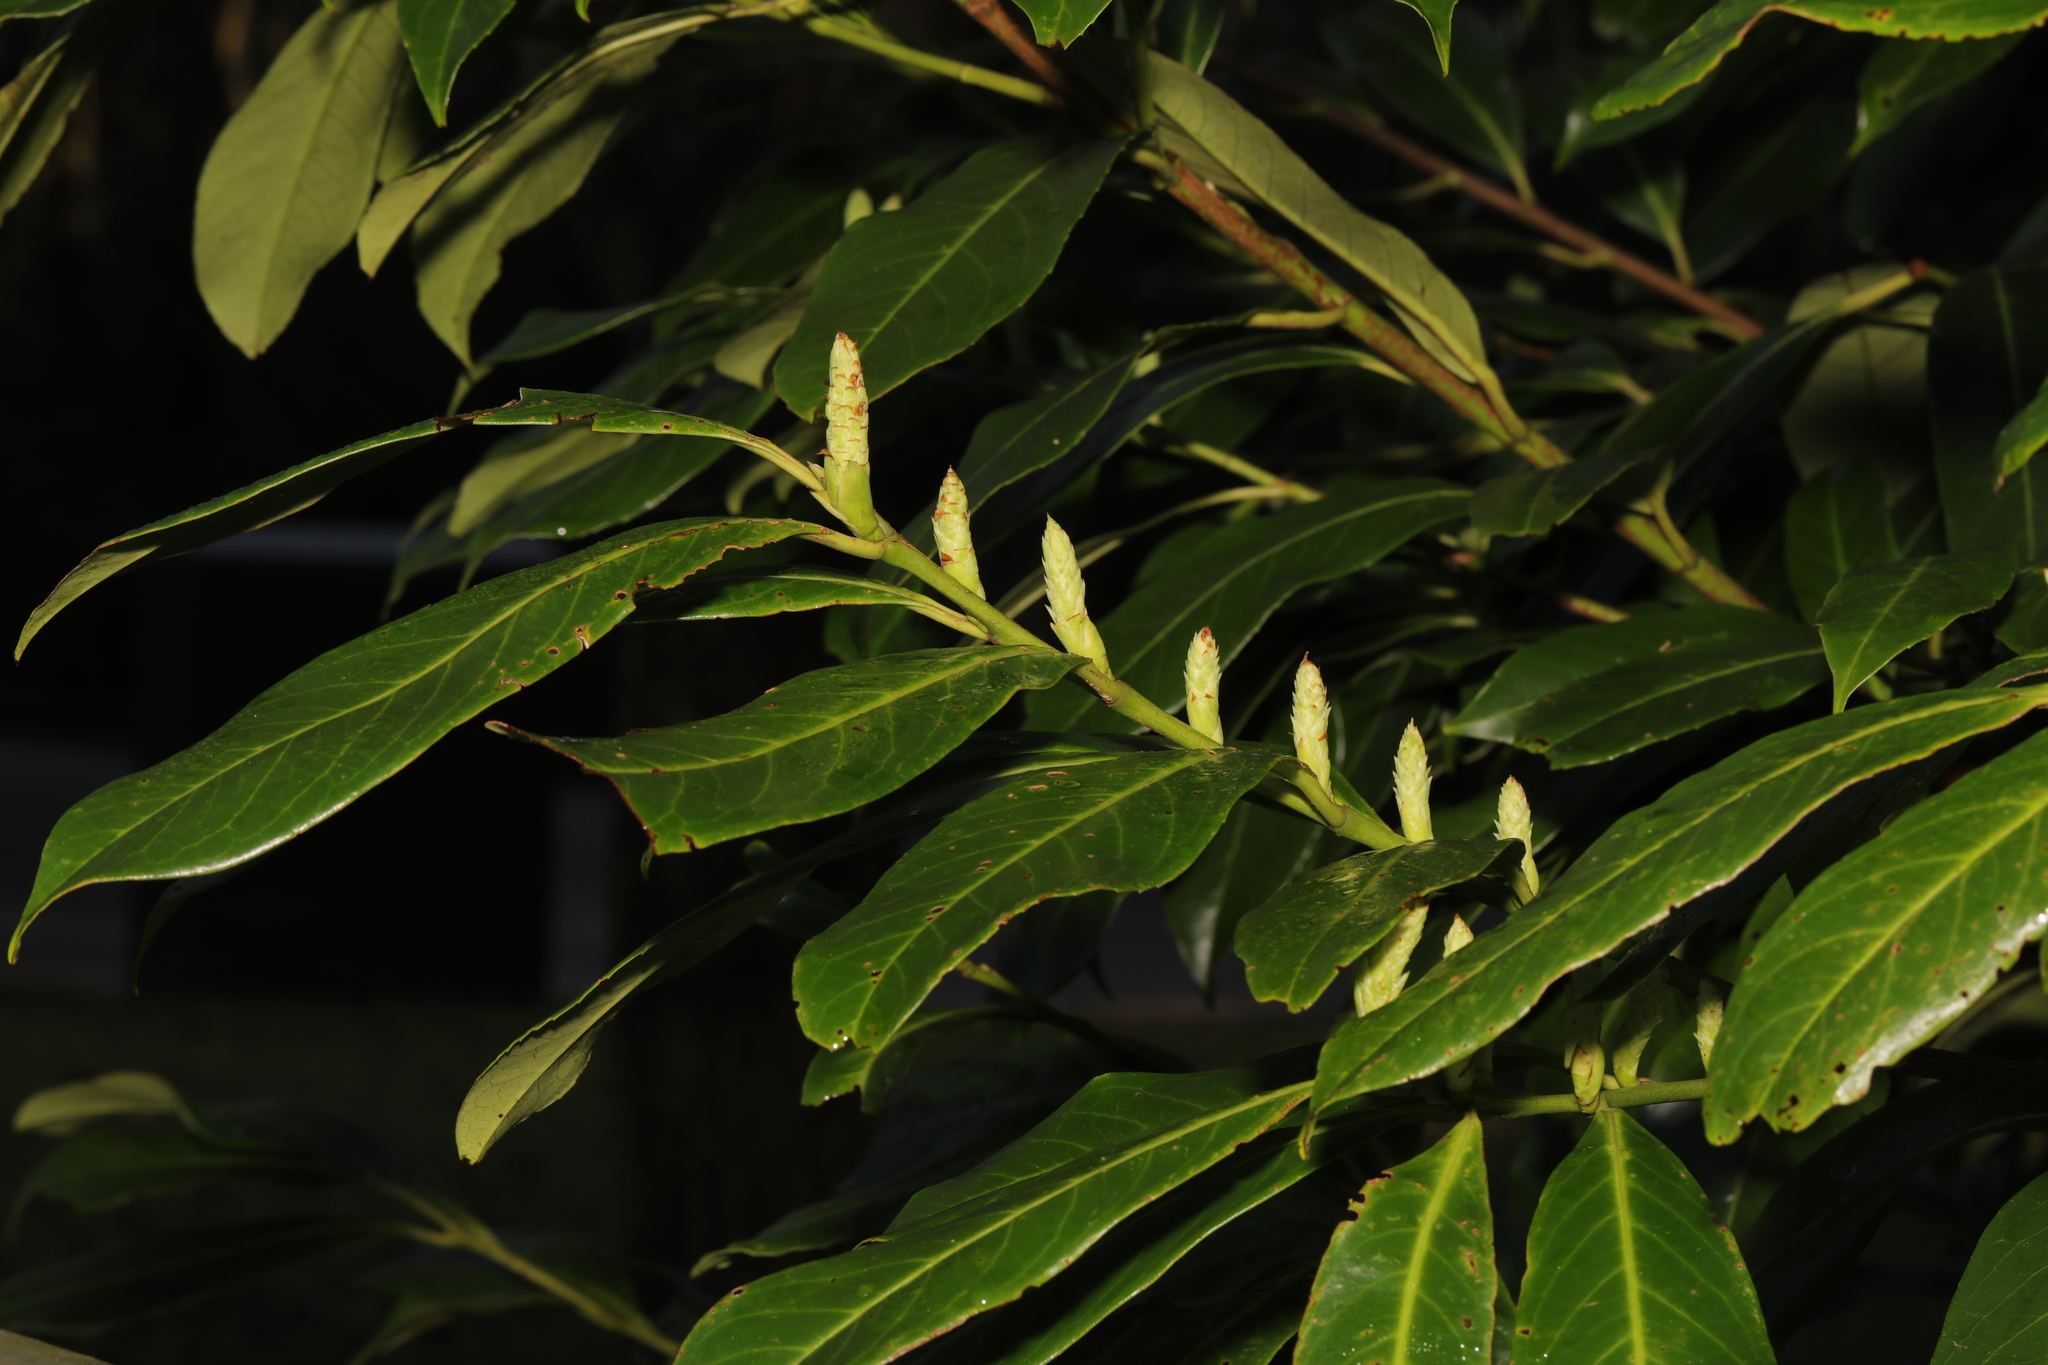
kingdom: Plantae
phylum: Tracheophyta
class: Magnoliopsida
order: Rosales
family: Rosaceae
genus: Prunus
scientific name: Prunus laurocerasus
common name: Cherry laurel
